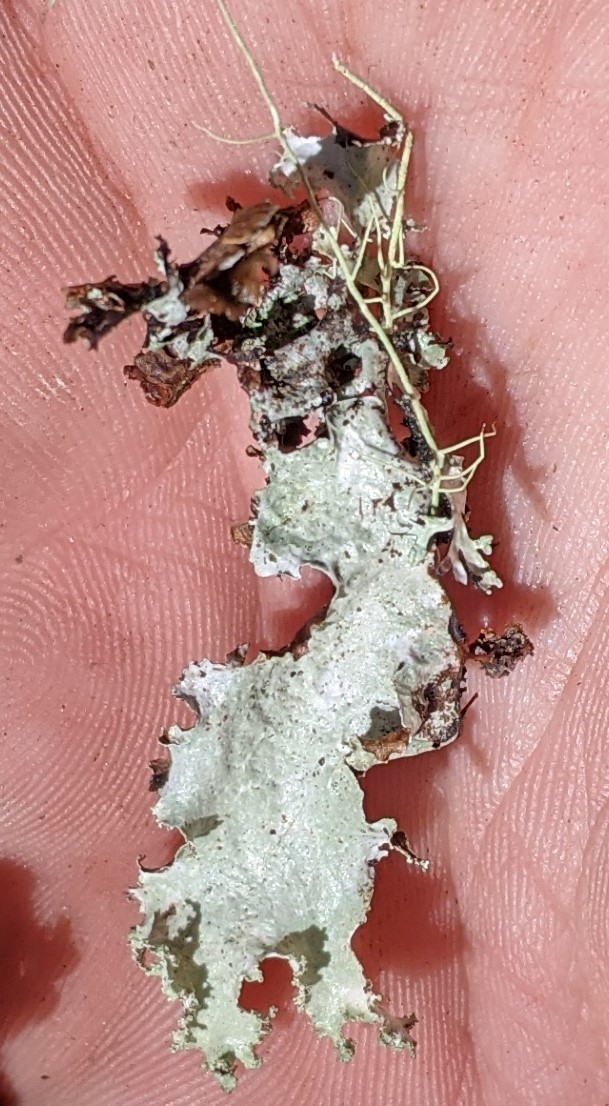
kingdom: Fungi
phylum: Ascomycota
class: Lecanoromycetes
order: Lecanorales
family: Parmeliaceae
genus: Platismatia
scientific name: Platismatia glauca
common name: Varied rag lichen
